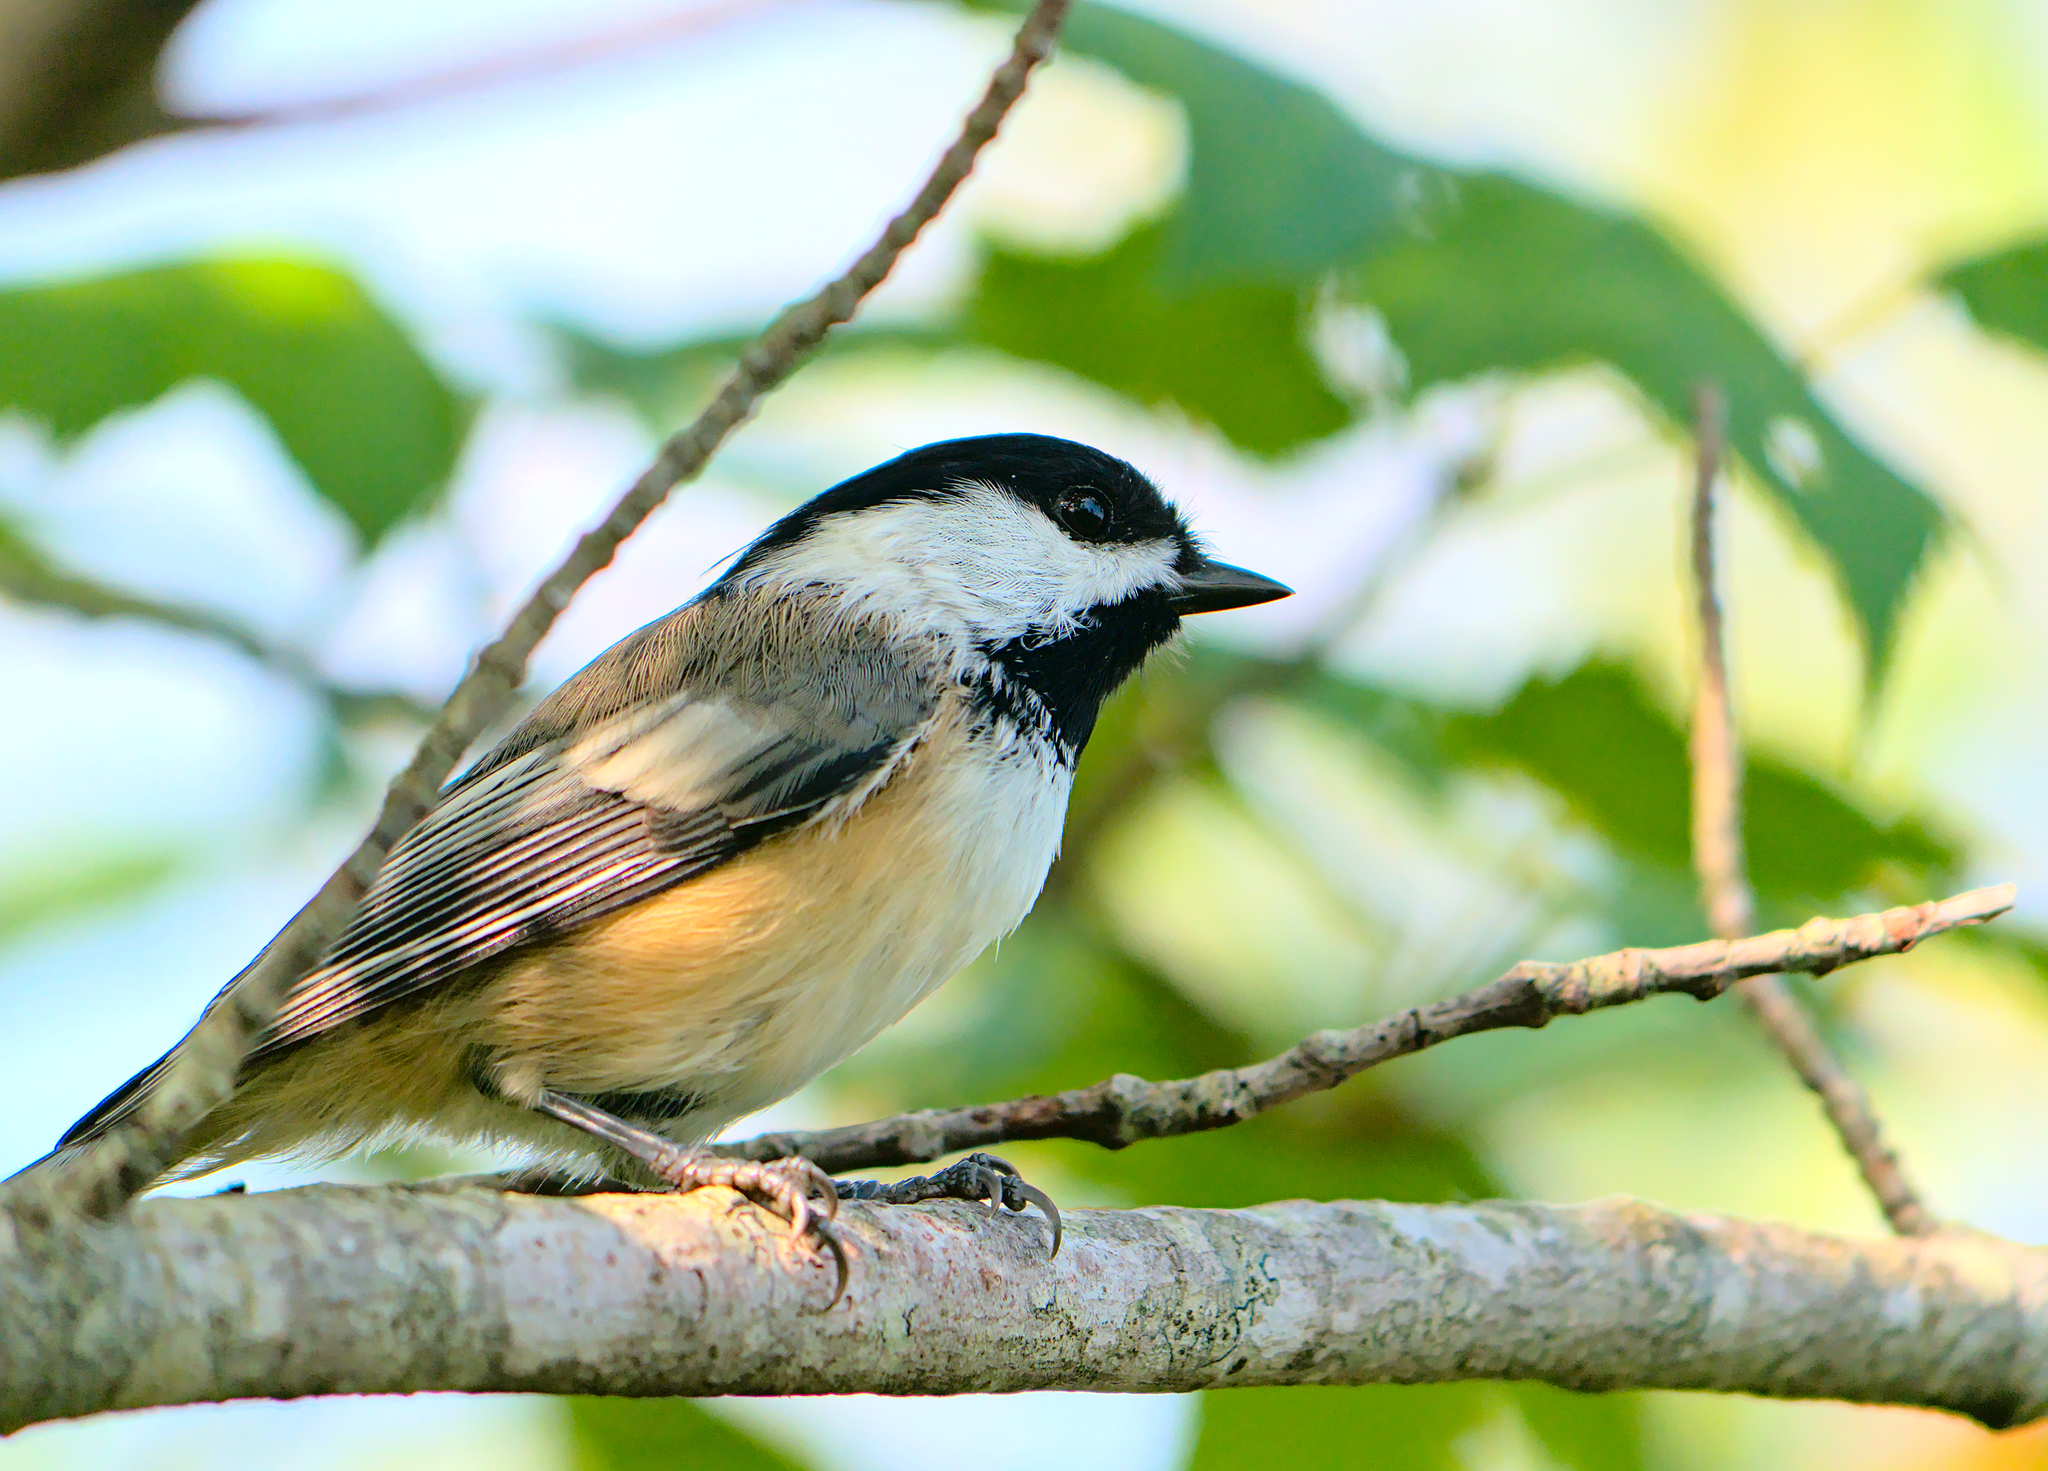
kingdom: Animalia
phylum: Chordata
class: Aves
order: Passeriformes
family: Paridae
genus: Poecile
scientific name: Poecile atricapillus
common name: Black-capped chickadee
